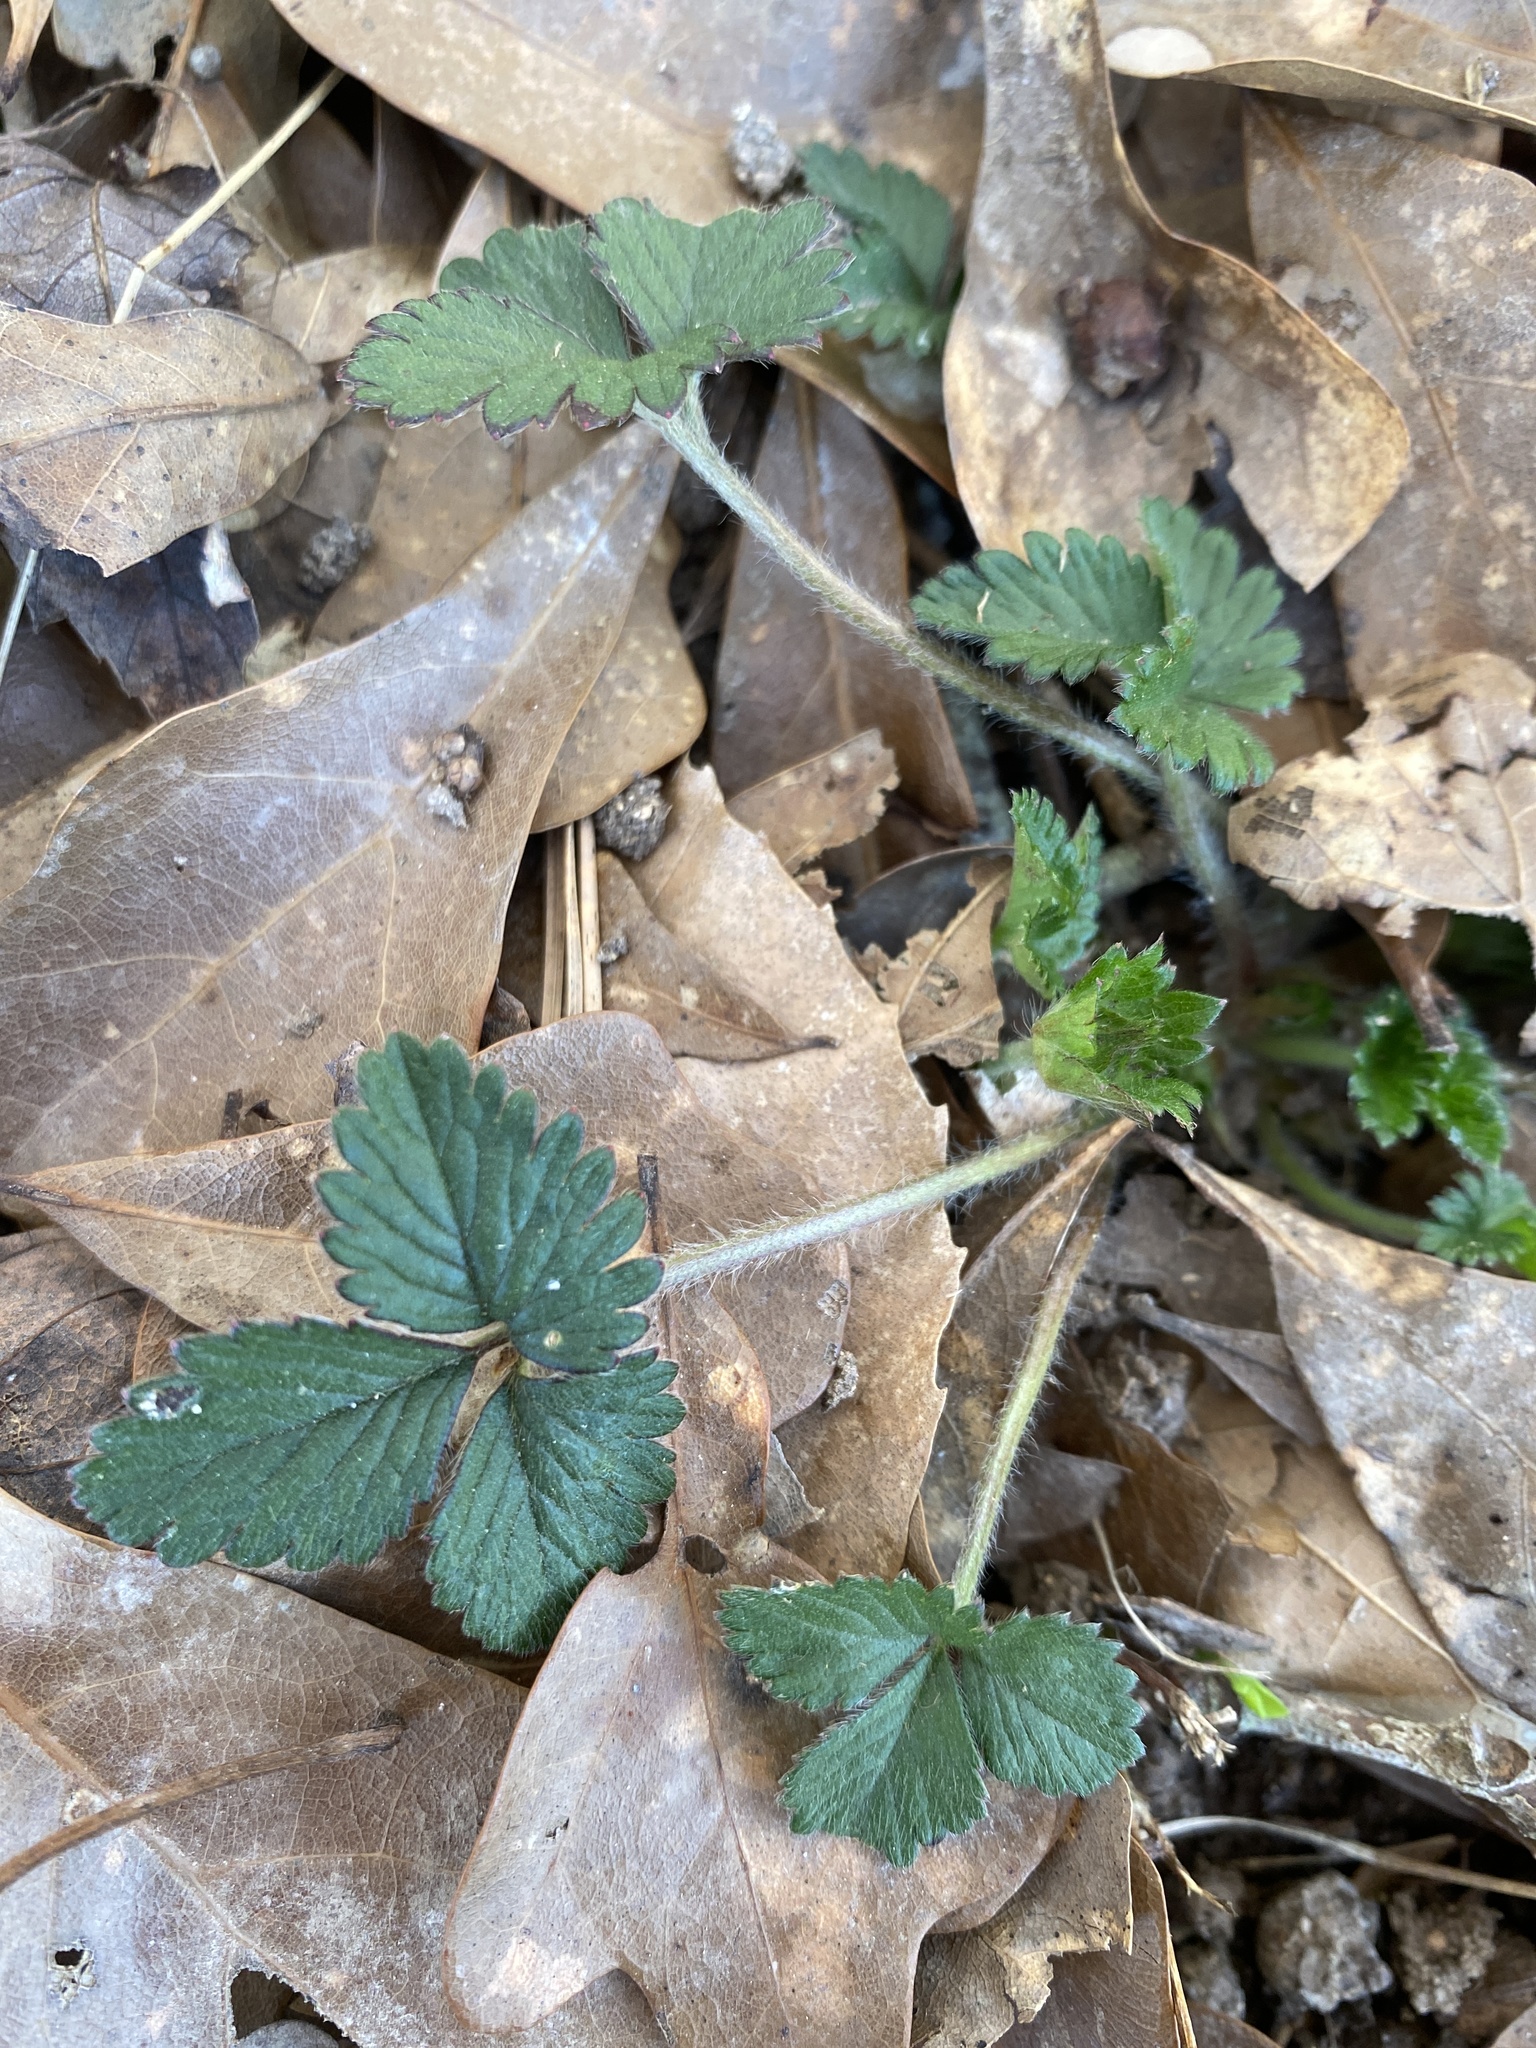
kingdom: Plantae
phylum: Tracheophyta
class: Magnoliopsida
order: Rosales
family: Rosaceae
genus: Potentilla
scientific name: Potentilla indica
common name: Yellow-flowered strawberry
